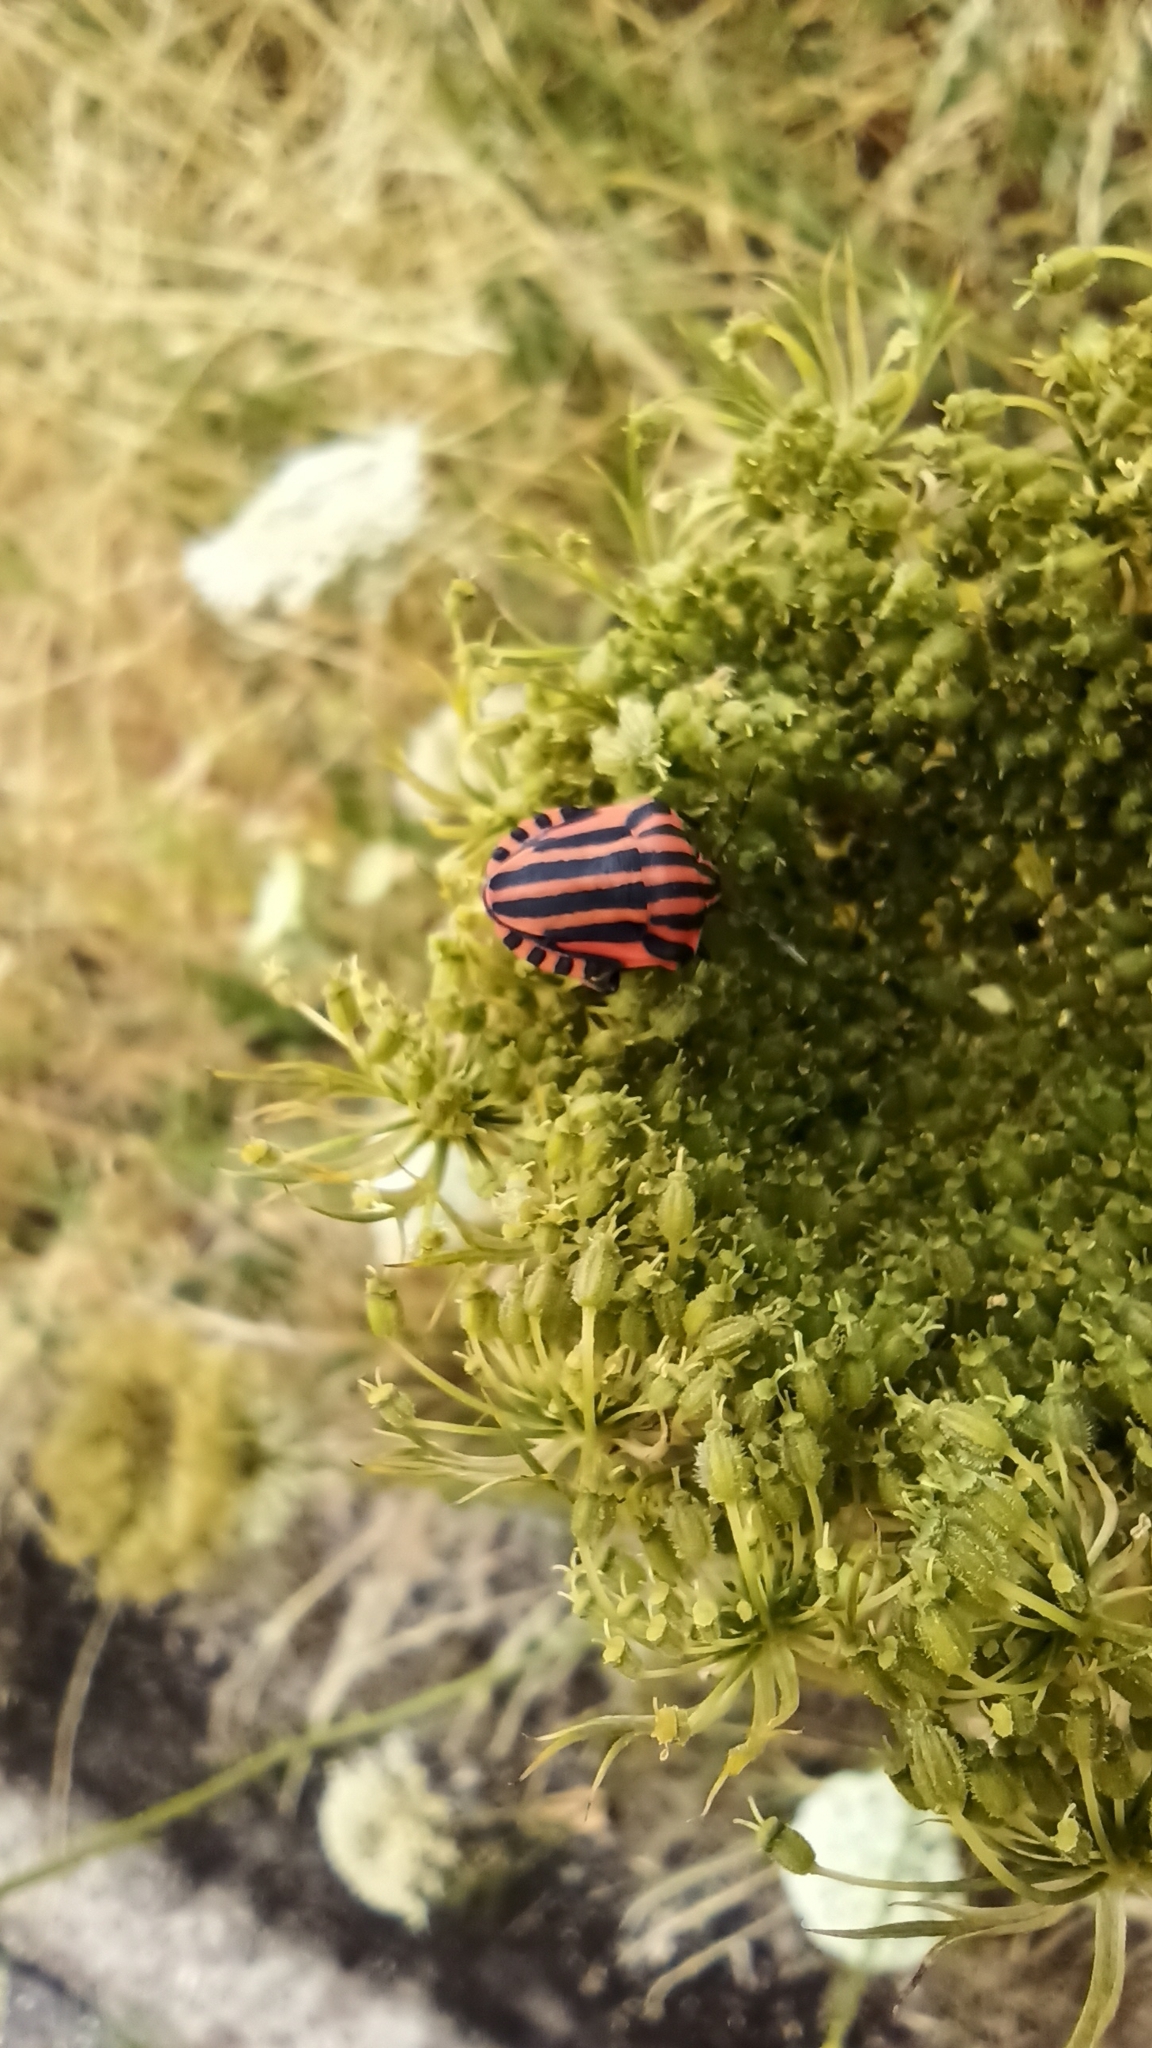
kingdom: Animalia
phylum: Arthropoda
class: Insecta
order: Hemiptera
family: Pentatomidae
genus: Graphosoma
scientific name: Graphosoma italicum
